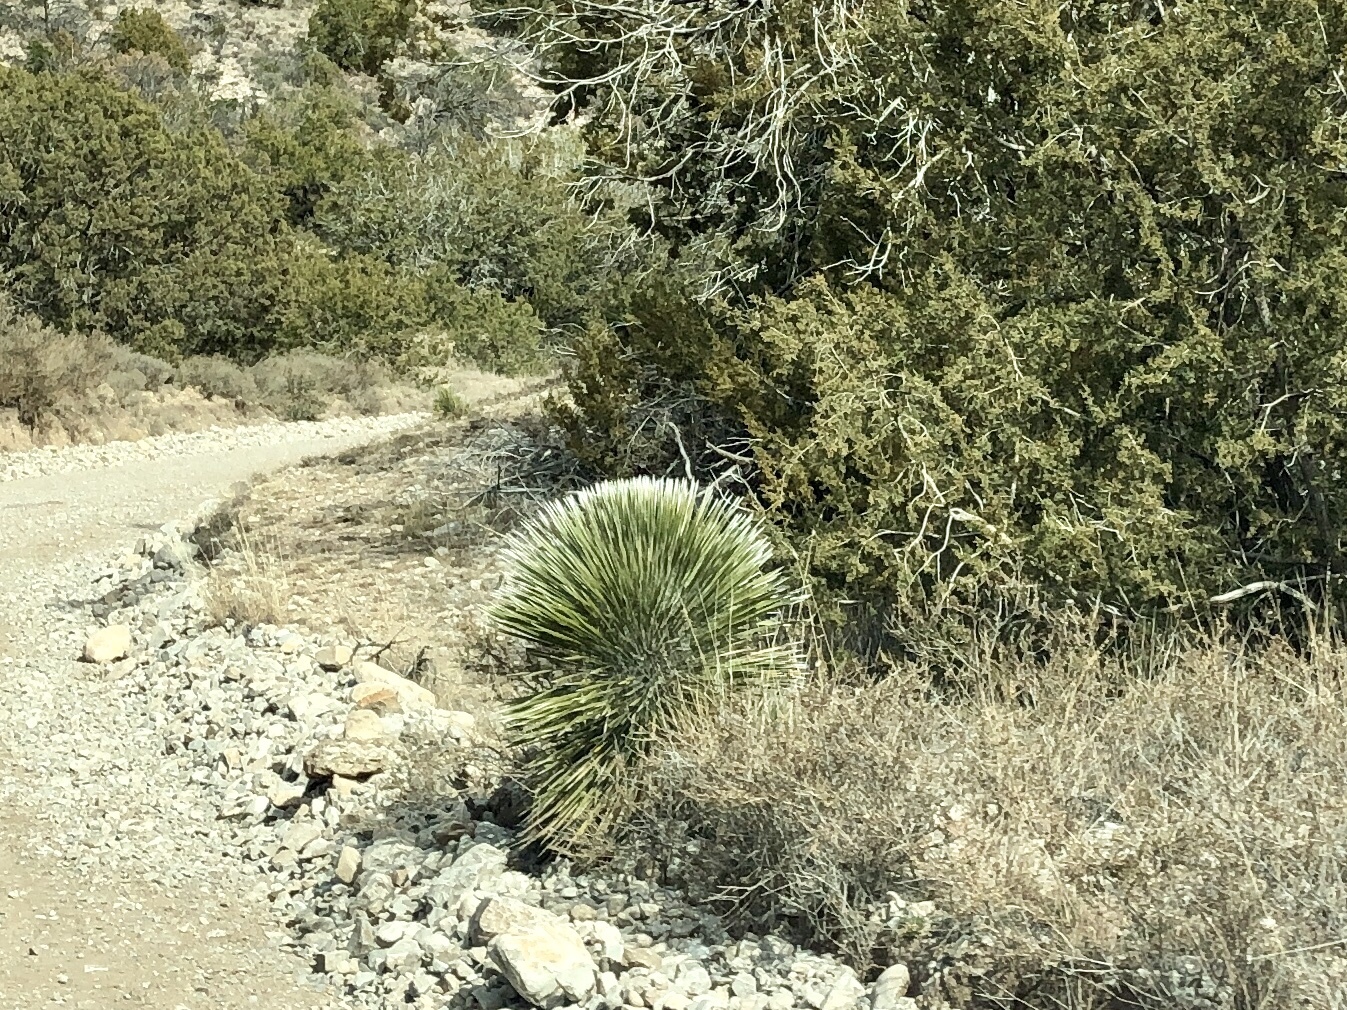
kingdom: Plantae
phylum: Tracheophyta
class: Liliopsida
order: Asparagales
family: Asparagaceae
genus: Yucca
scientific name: Yucca elata
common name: Palmella
